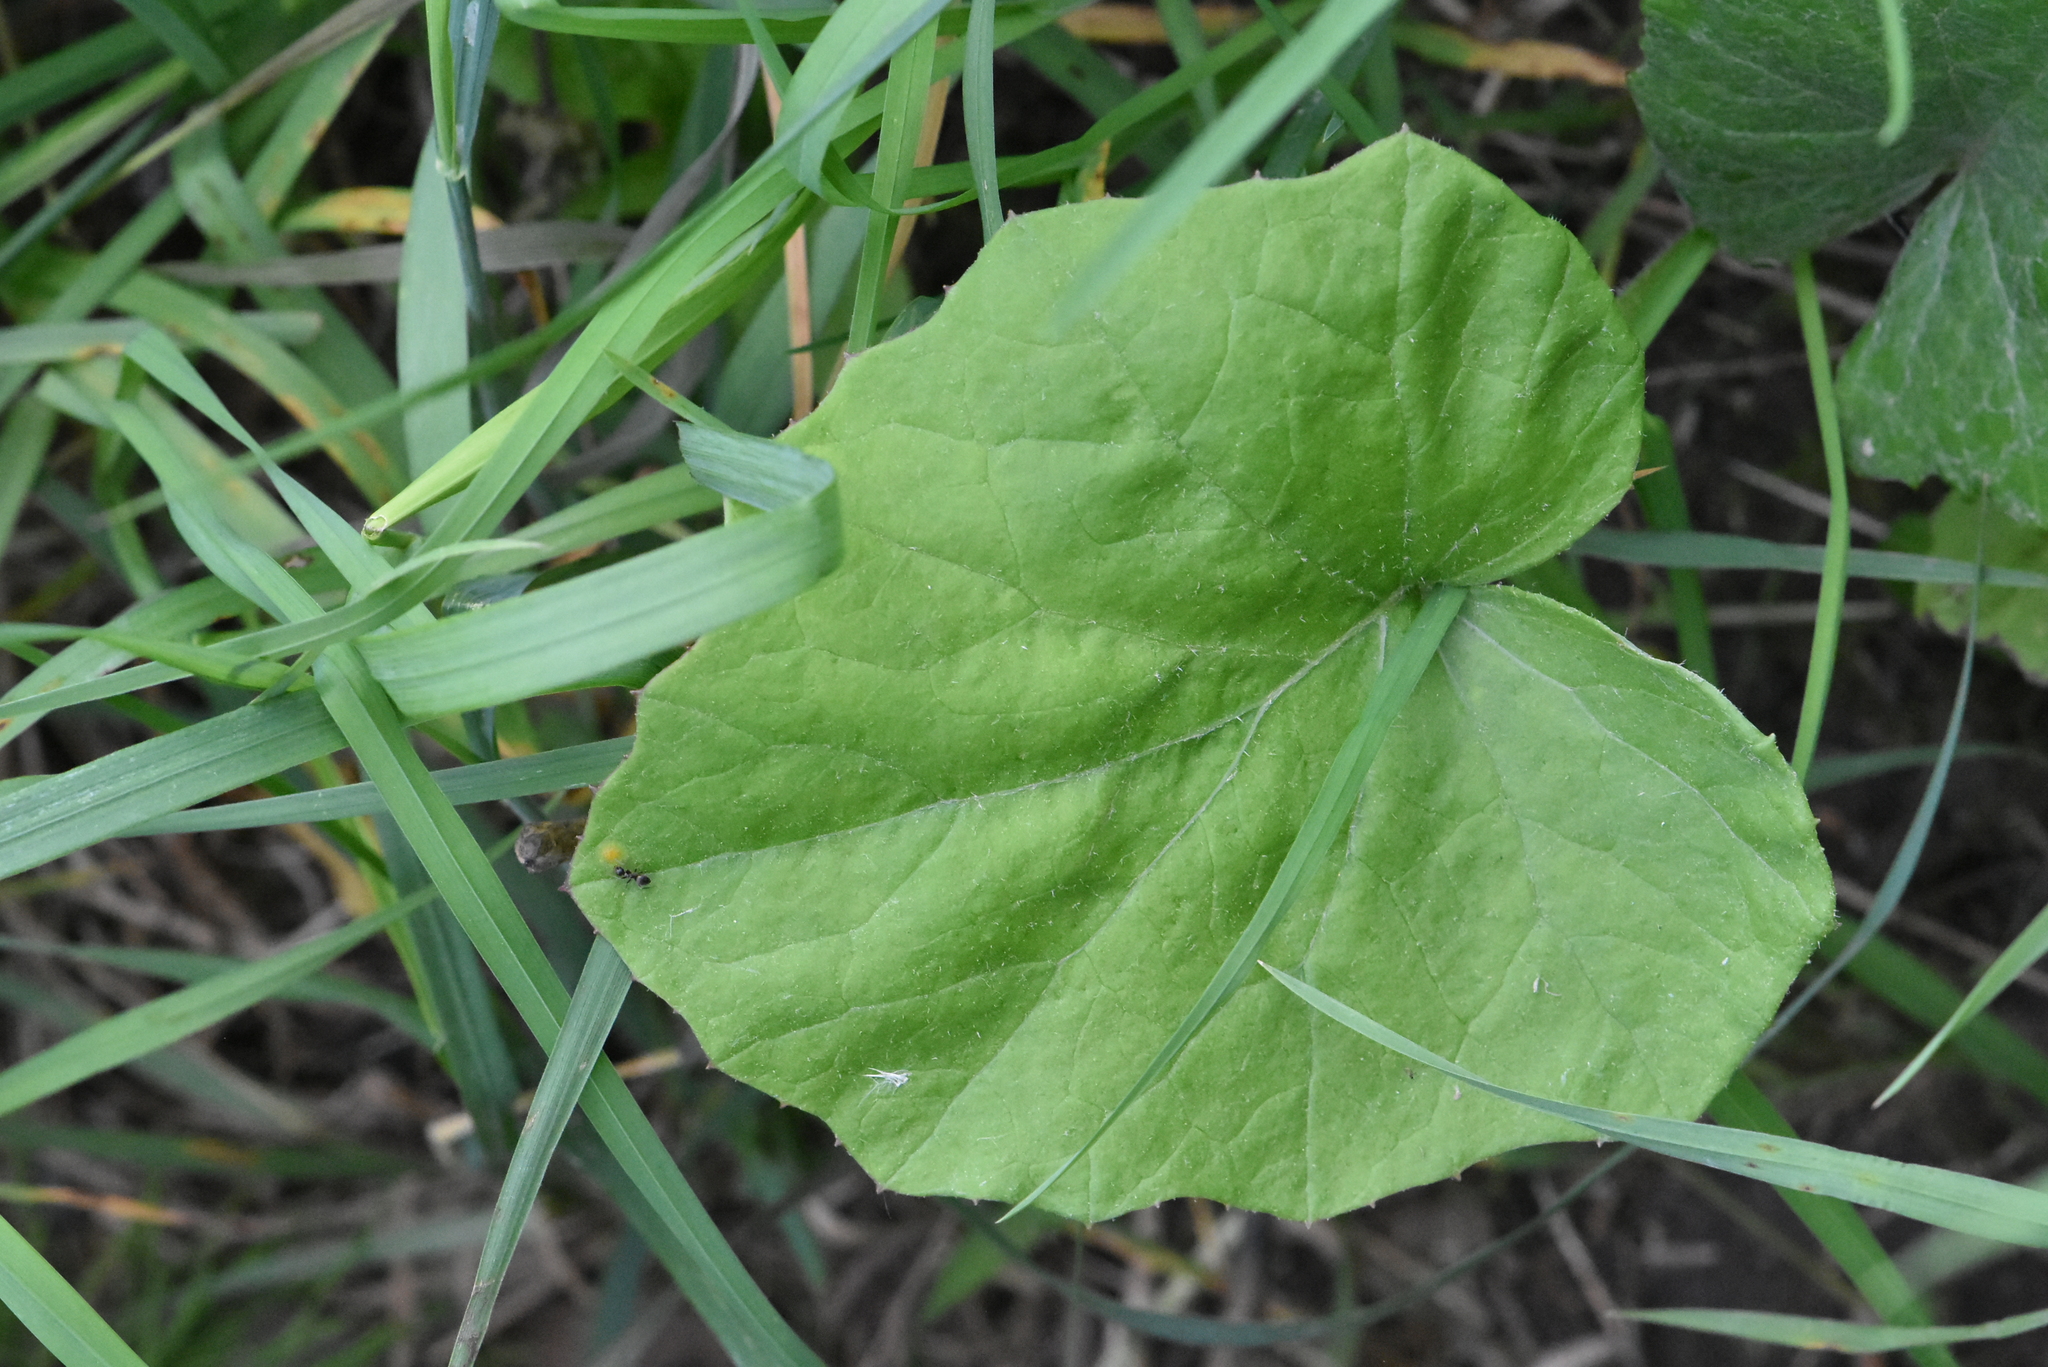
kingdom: Plantae
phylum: Tracheophyta
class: Magnoliopsida
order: Asterales
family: Asteraceae
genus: Tussilago
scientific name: Tussilago farfara
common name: Coltsfoot
